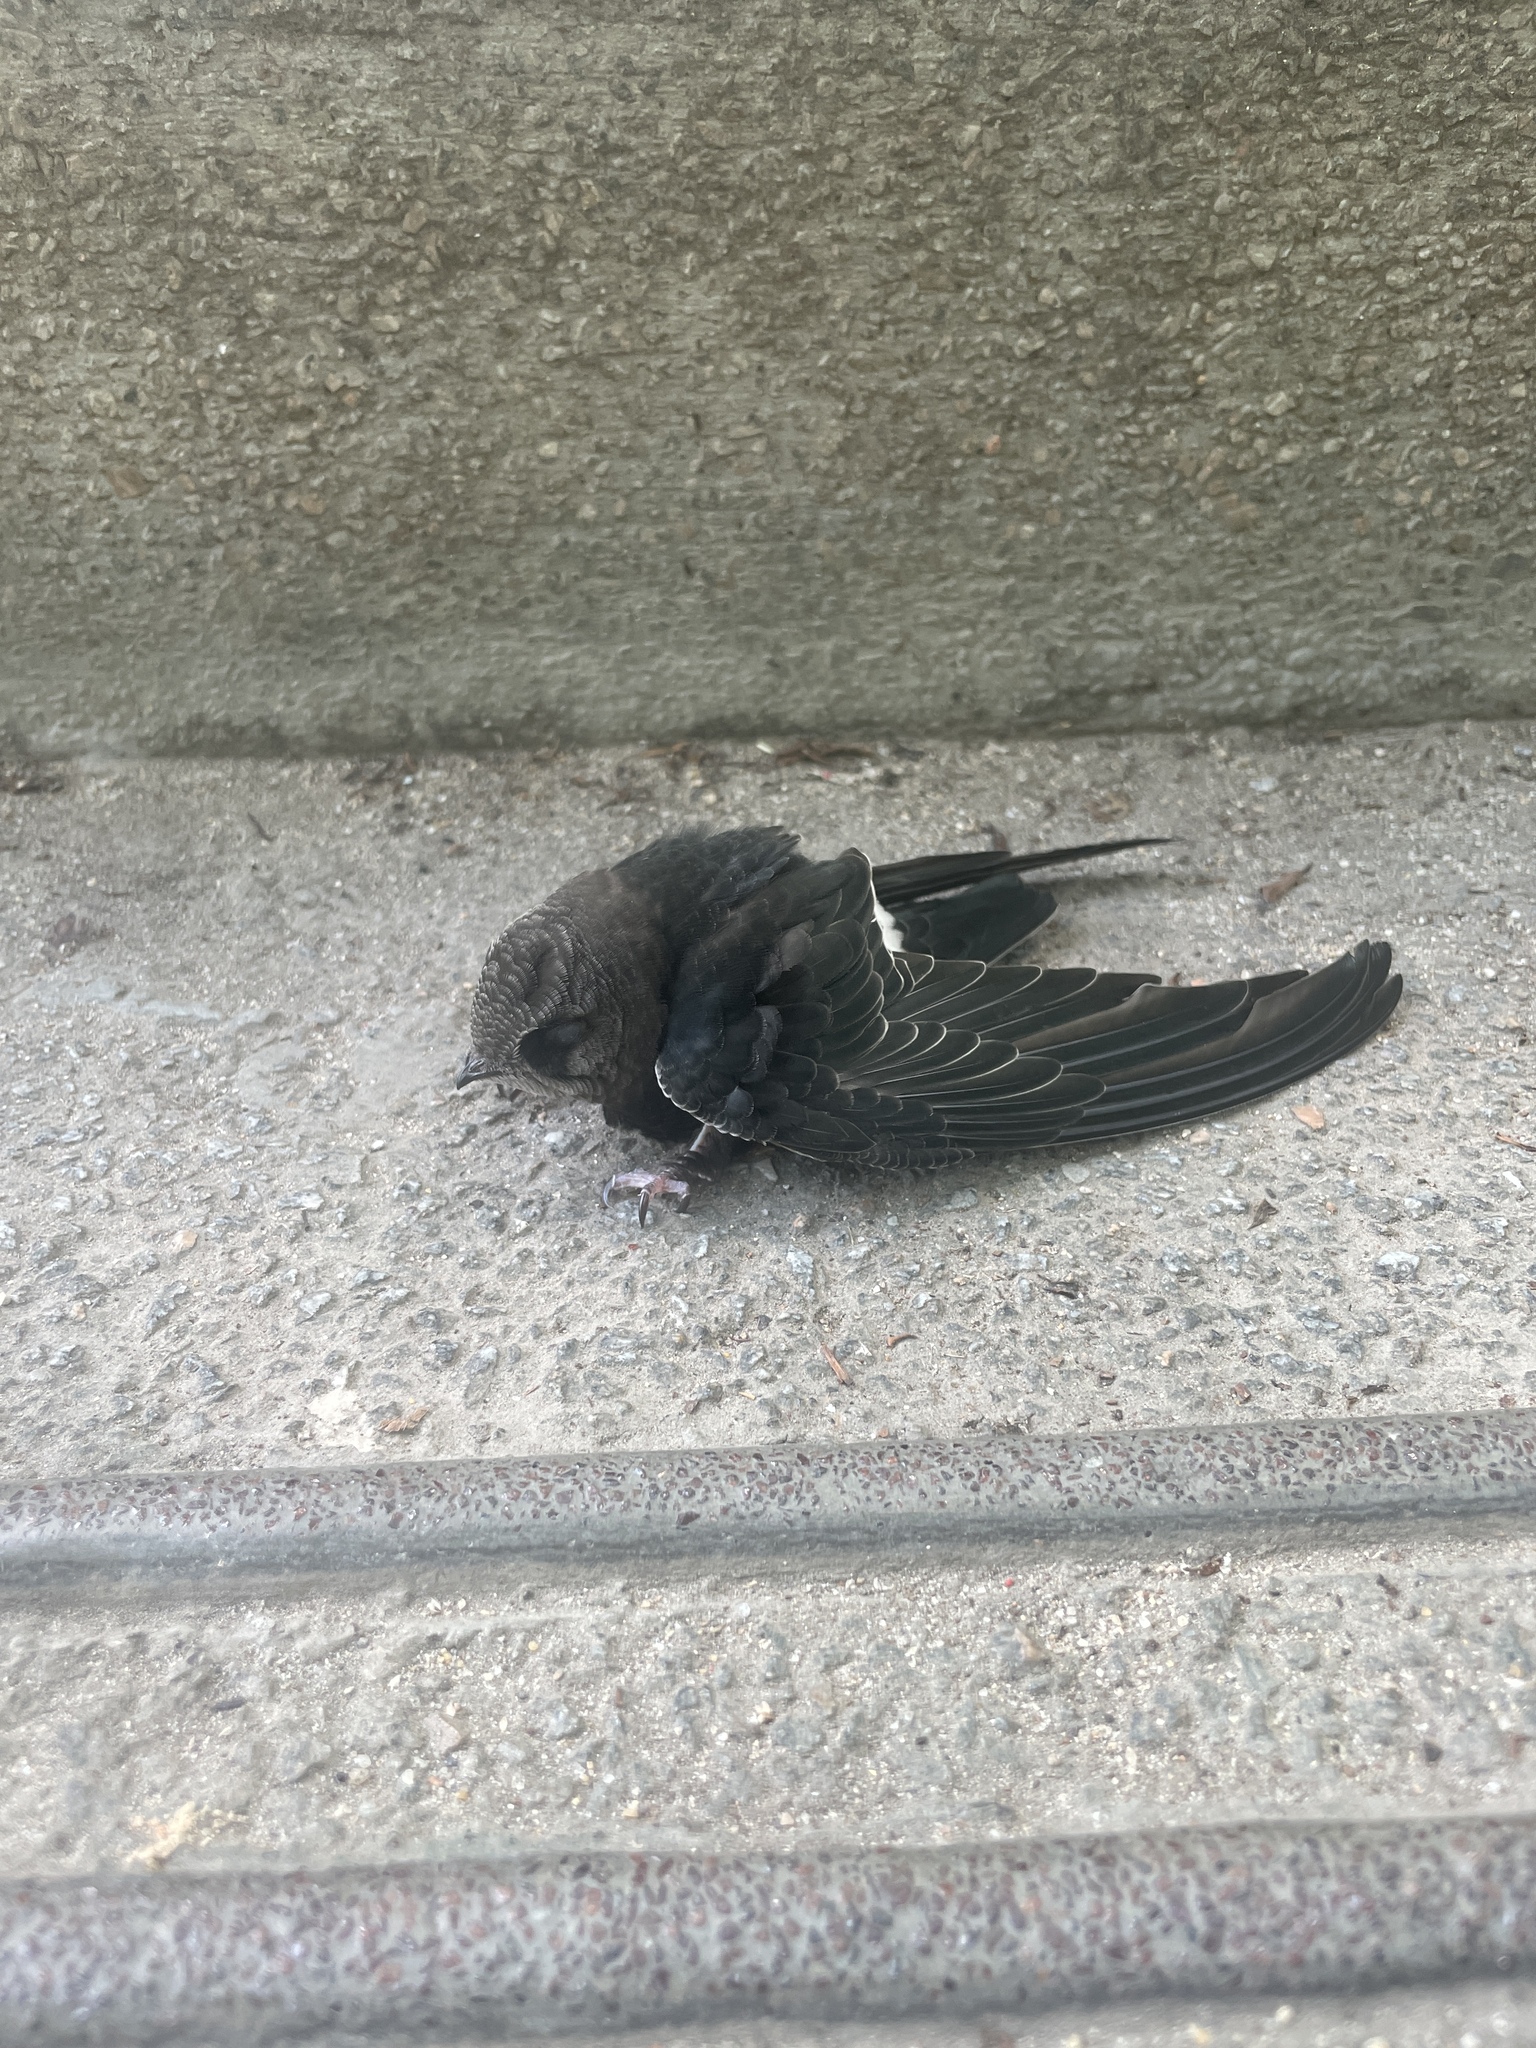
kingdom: Animalia
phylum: Chordata
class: Aves
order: Apodiformes
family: Apodidae
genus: Apus
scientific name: Apus nipalensis
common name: House swift
